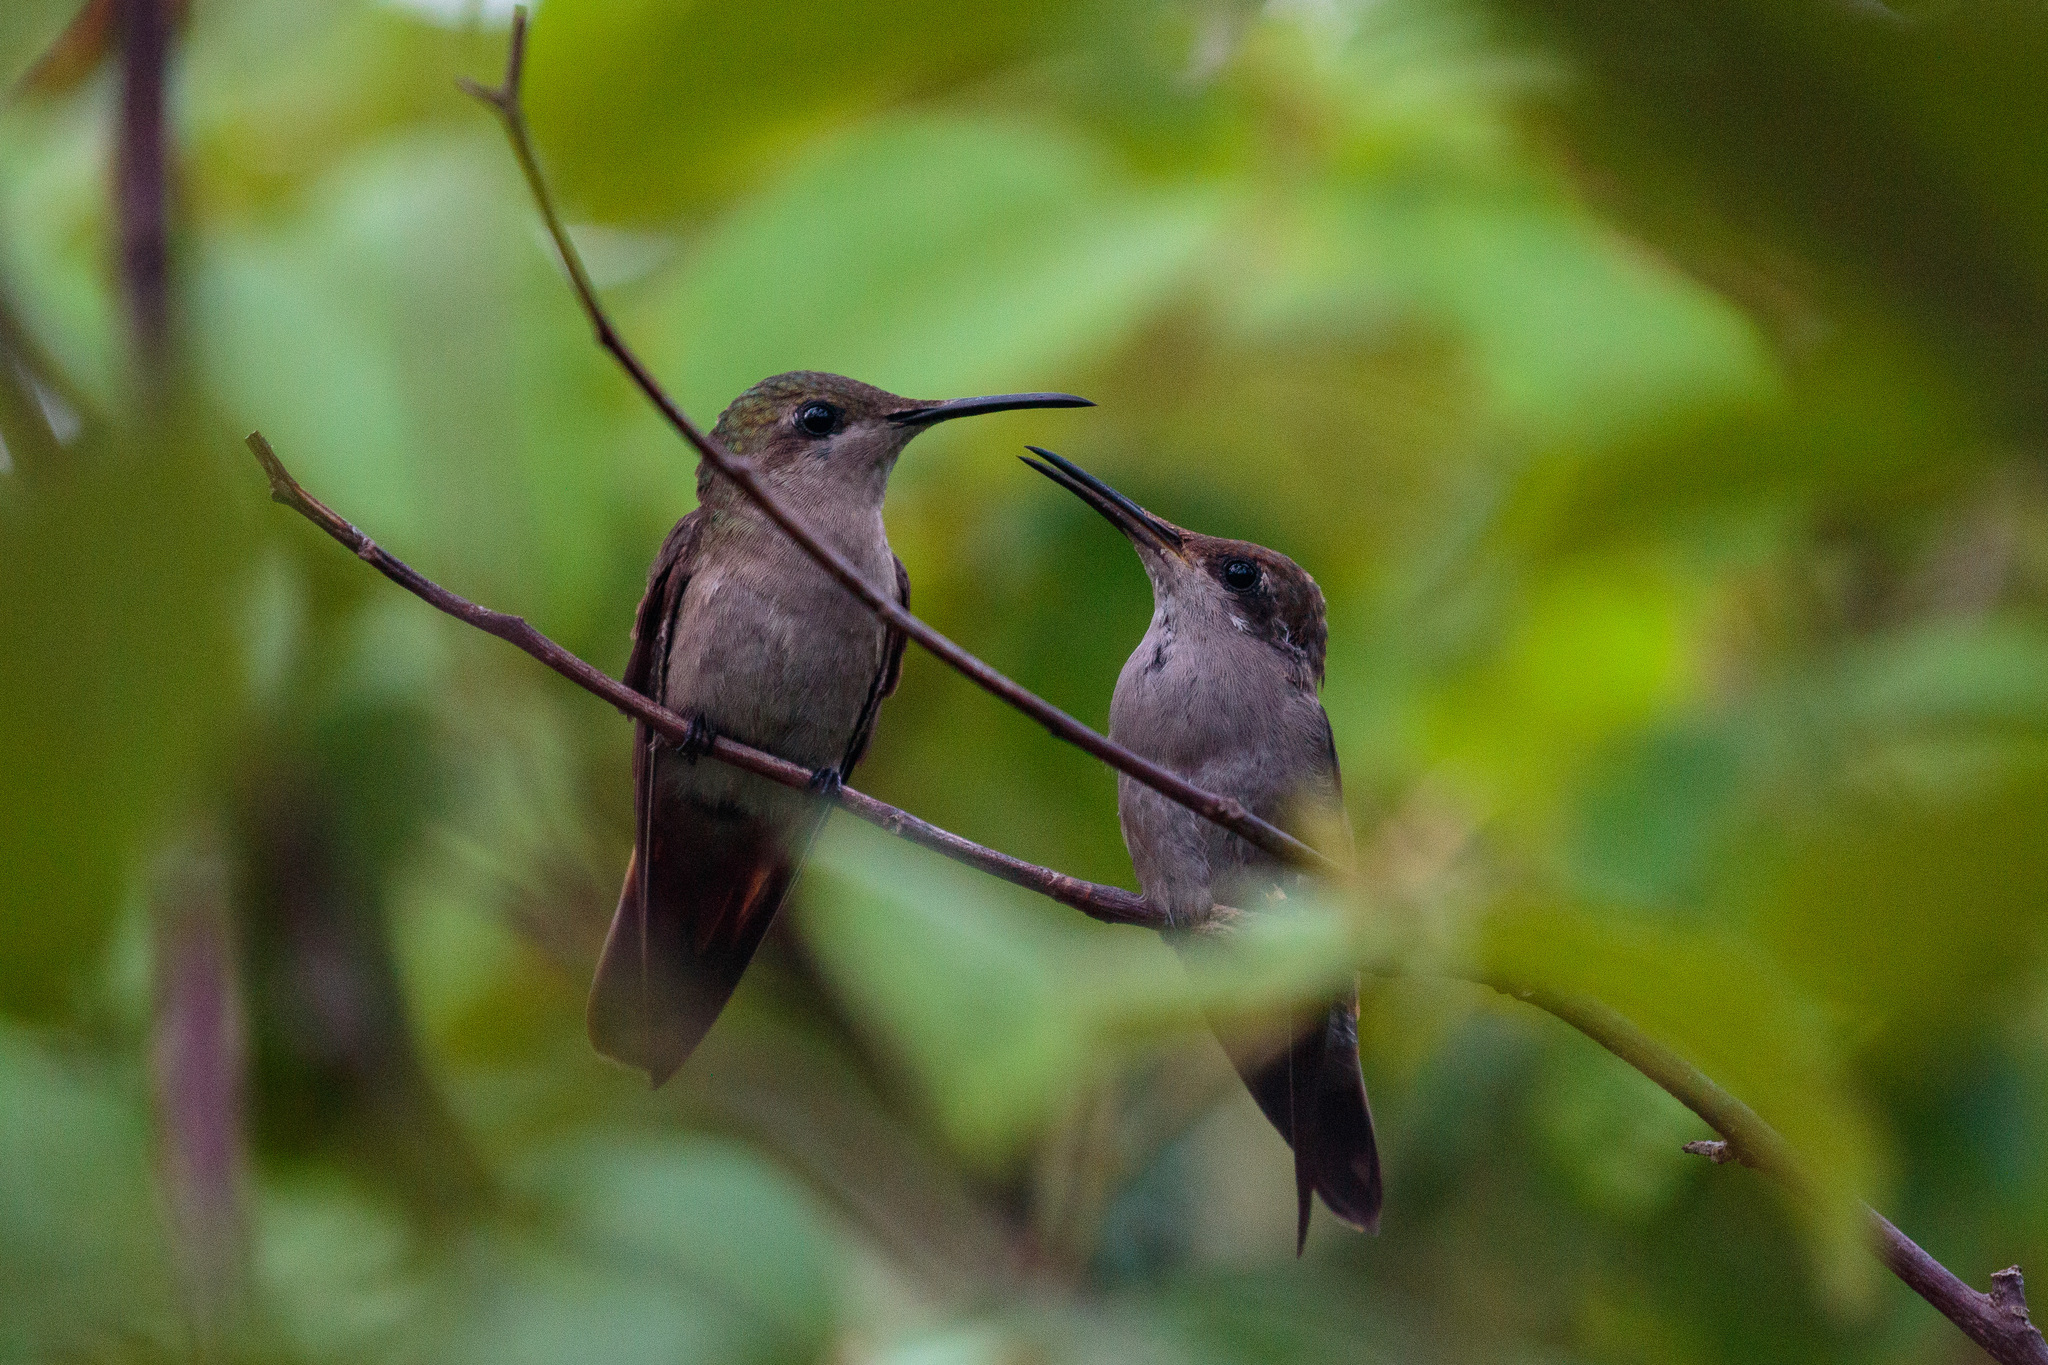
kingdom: Animalia
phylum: Chordata
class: Aves
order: Apodiformes
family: Trochilidae
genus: Chrysolampis
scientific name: Chrysolampis mosquitus
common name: Ruby-topaz hummingbird
